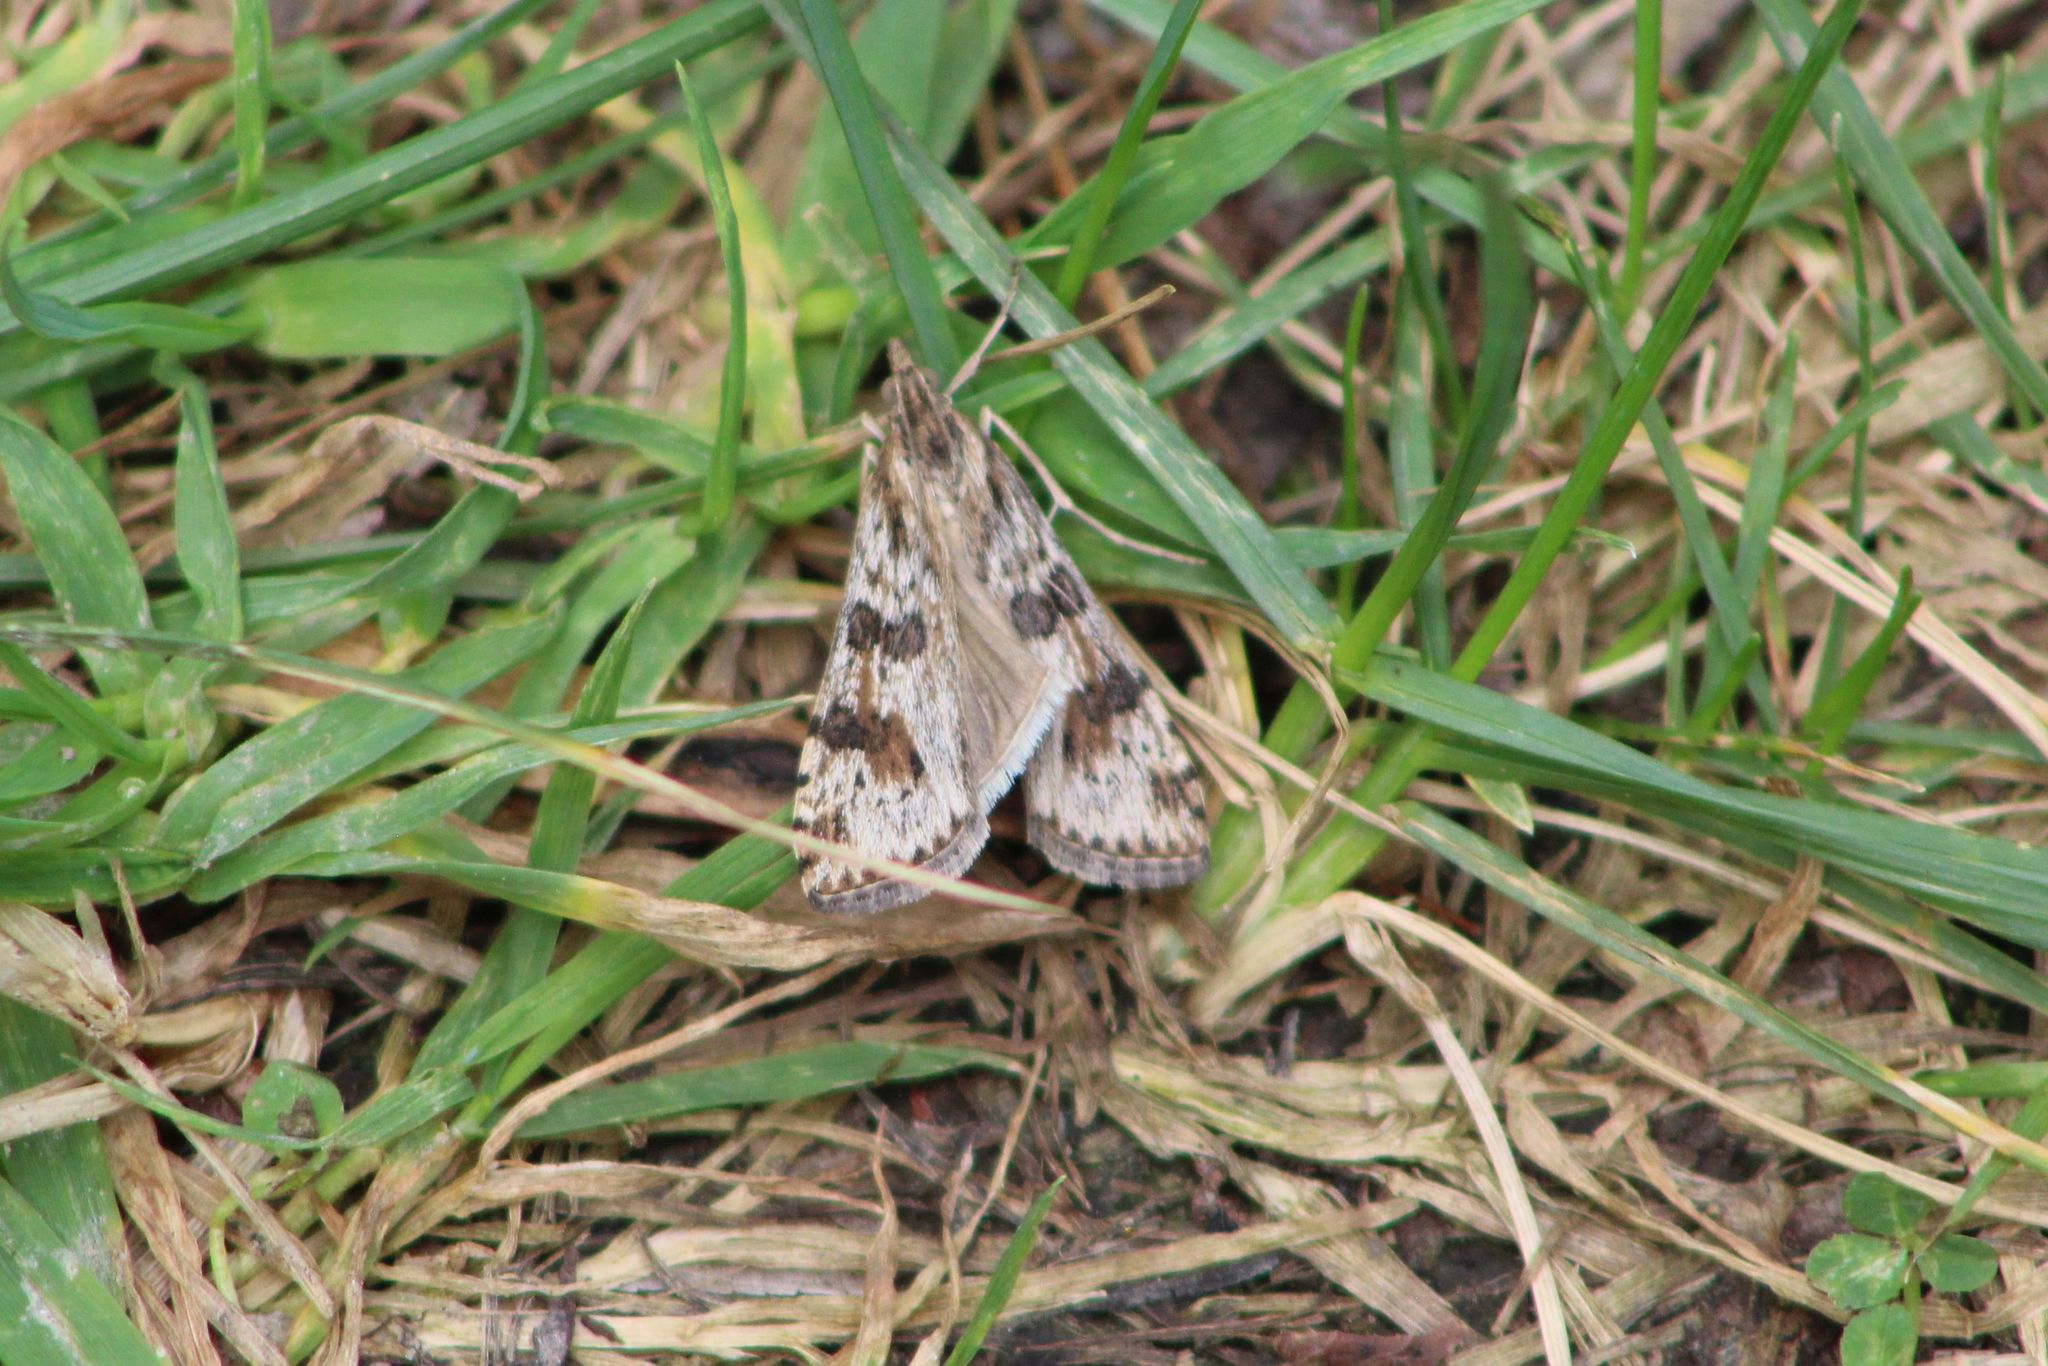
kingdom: Animalia
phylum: Arthropoda
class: Insecta
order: Lepidoptera
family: Crambidae
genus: Nomophila
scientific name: Nomophila nearctica
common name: American rush veneer
